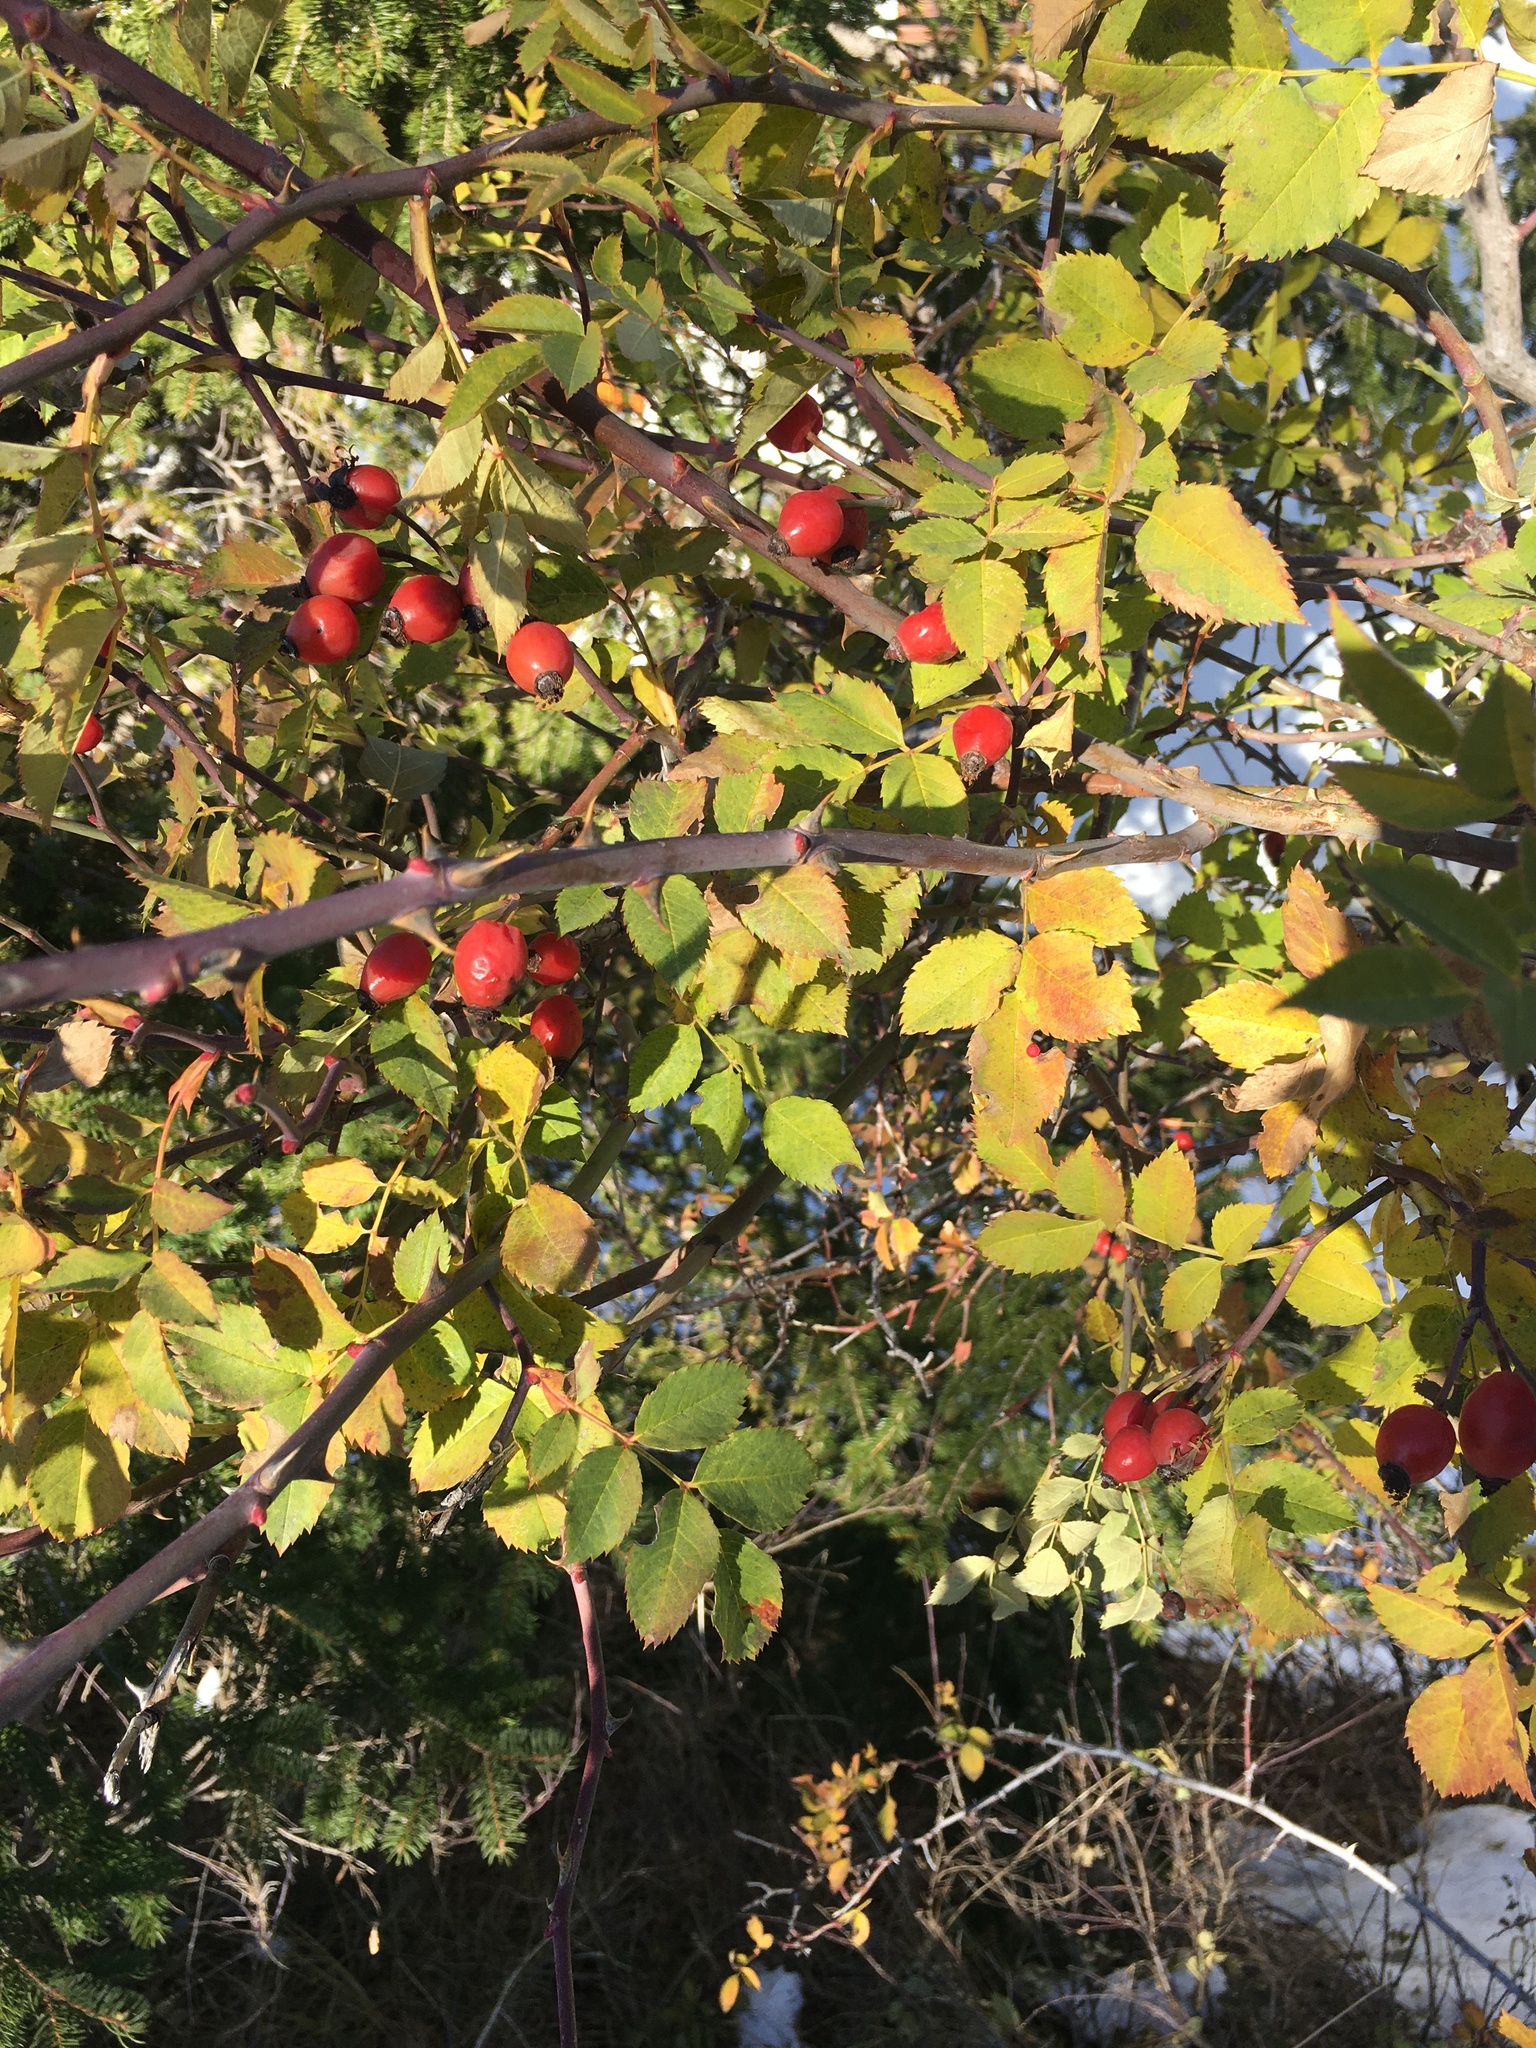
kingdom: Plantae
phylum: Tracheophyta
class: Magnoliopsida
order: Rosales
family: Rosaceae
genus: Rosa
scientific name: Rosa canina
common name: Dog rose
